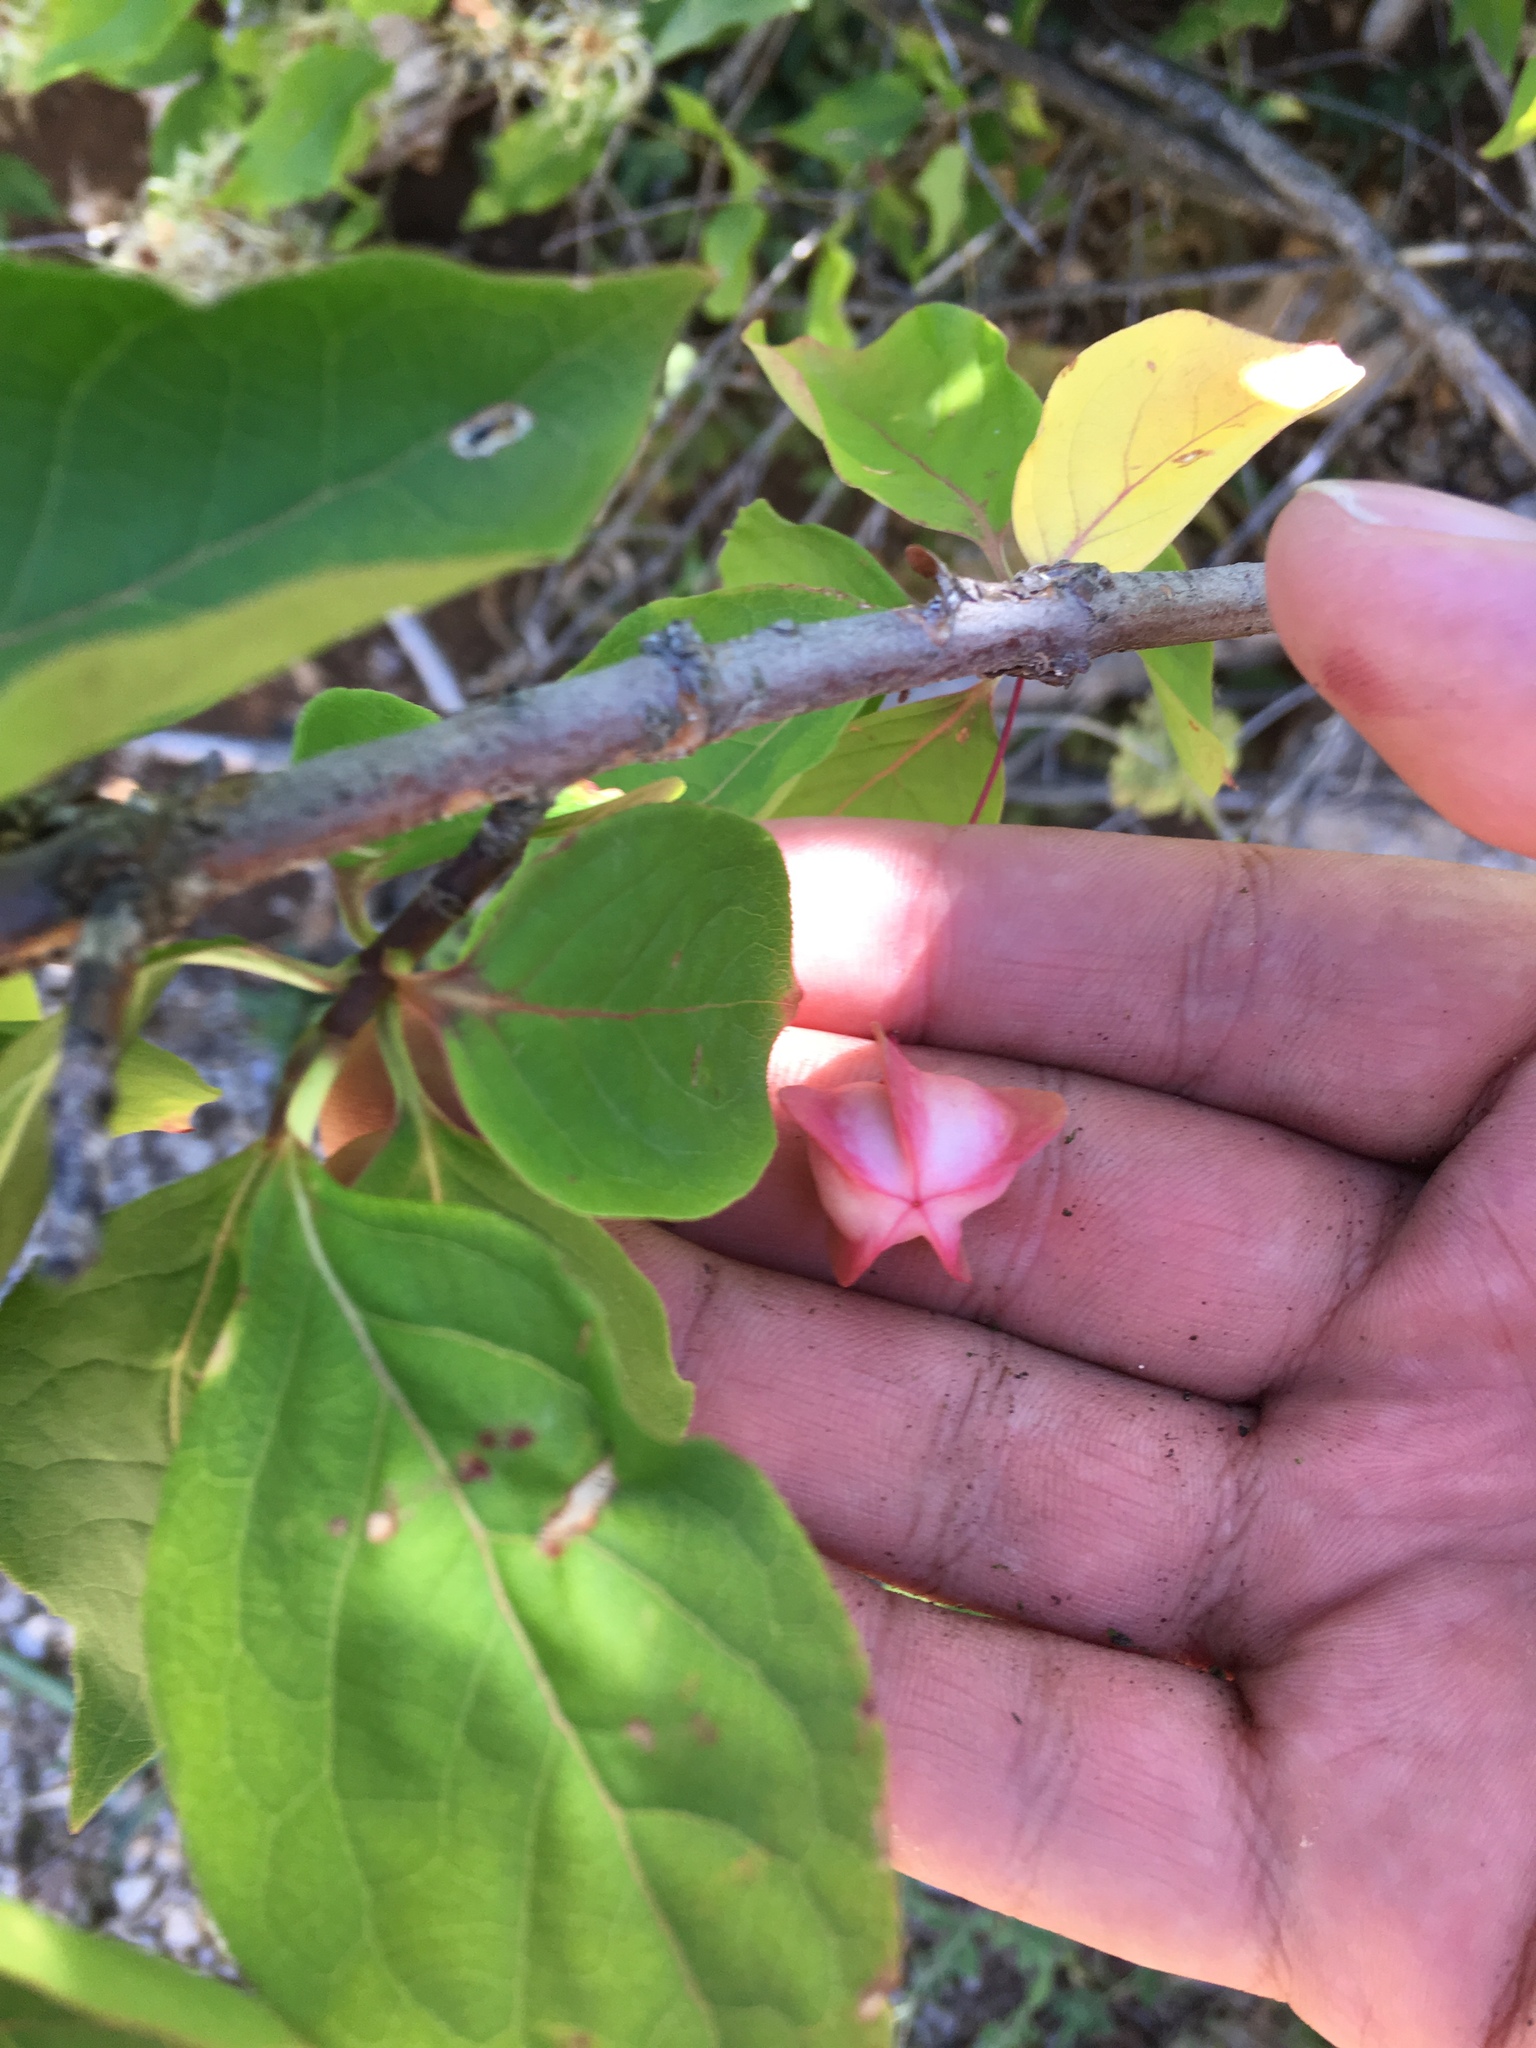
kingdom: Plantae
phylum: Tracheophyta
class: Magnoliopsida
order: Celastrales
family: Celastraceae
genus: Euonymus
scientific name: Euonymus latifolius
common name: Large-leaved spindle
